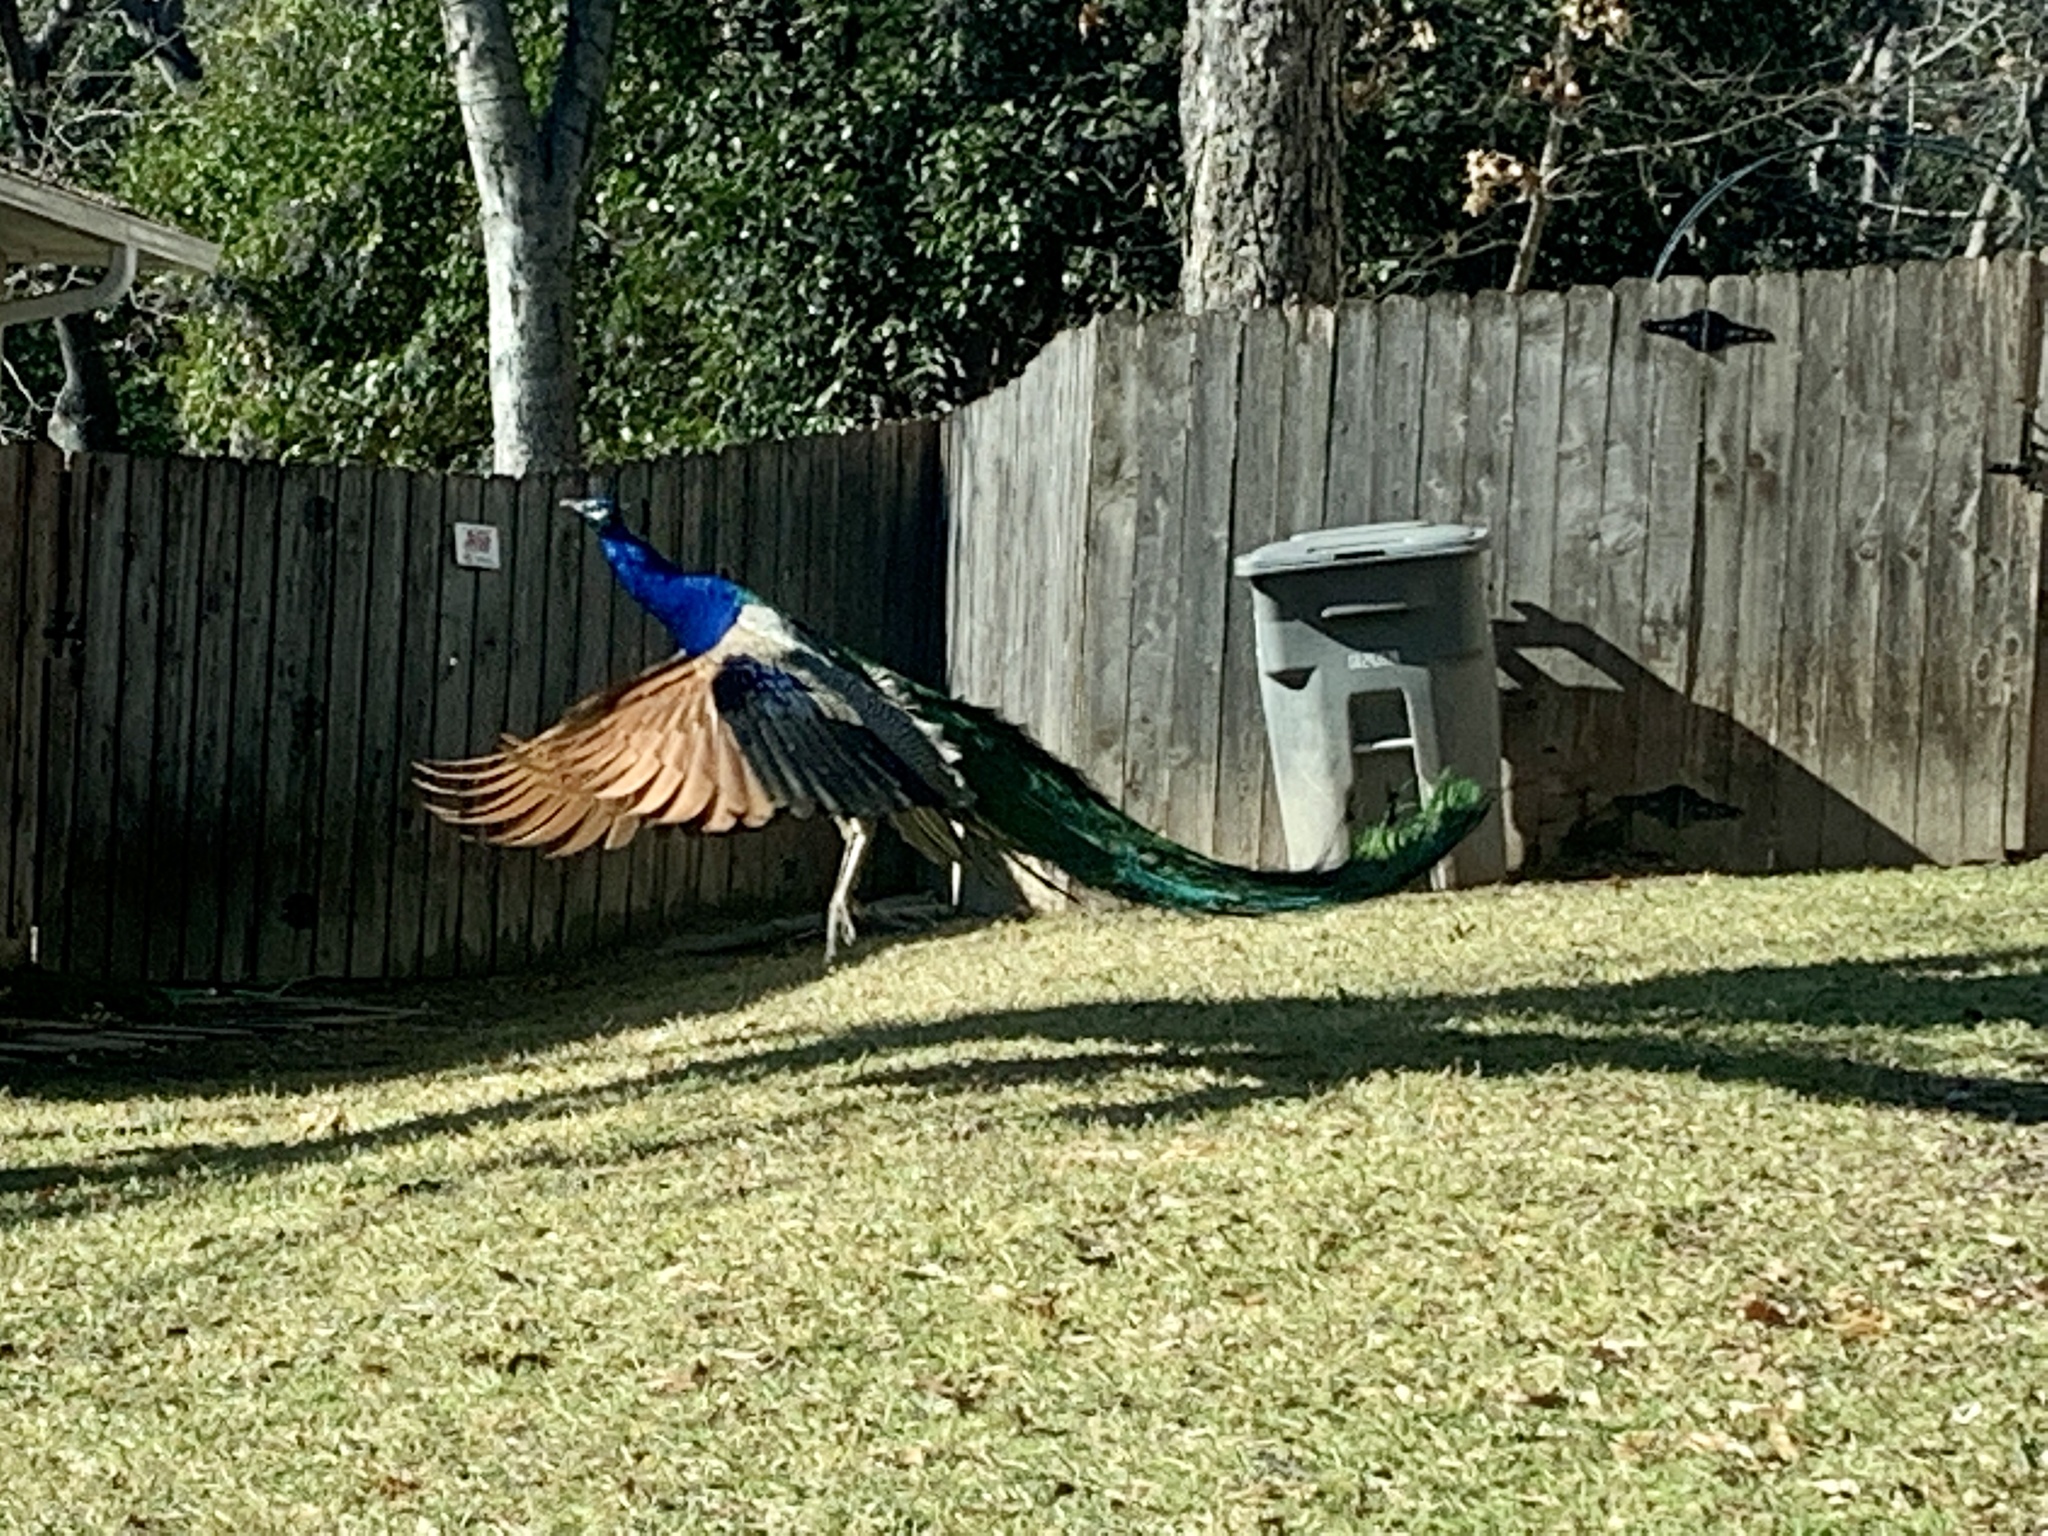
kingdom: Animalia
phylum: Chordata
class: Aves
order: Galliformes
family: Phasianidae
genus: Pavo
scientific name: Pavo cristatus
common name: Indian peafowl
